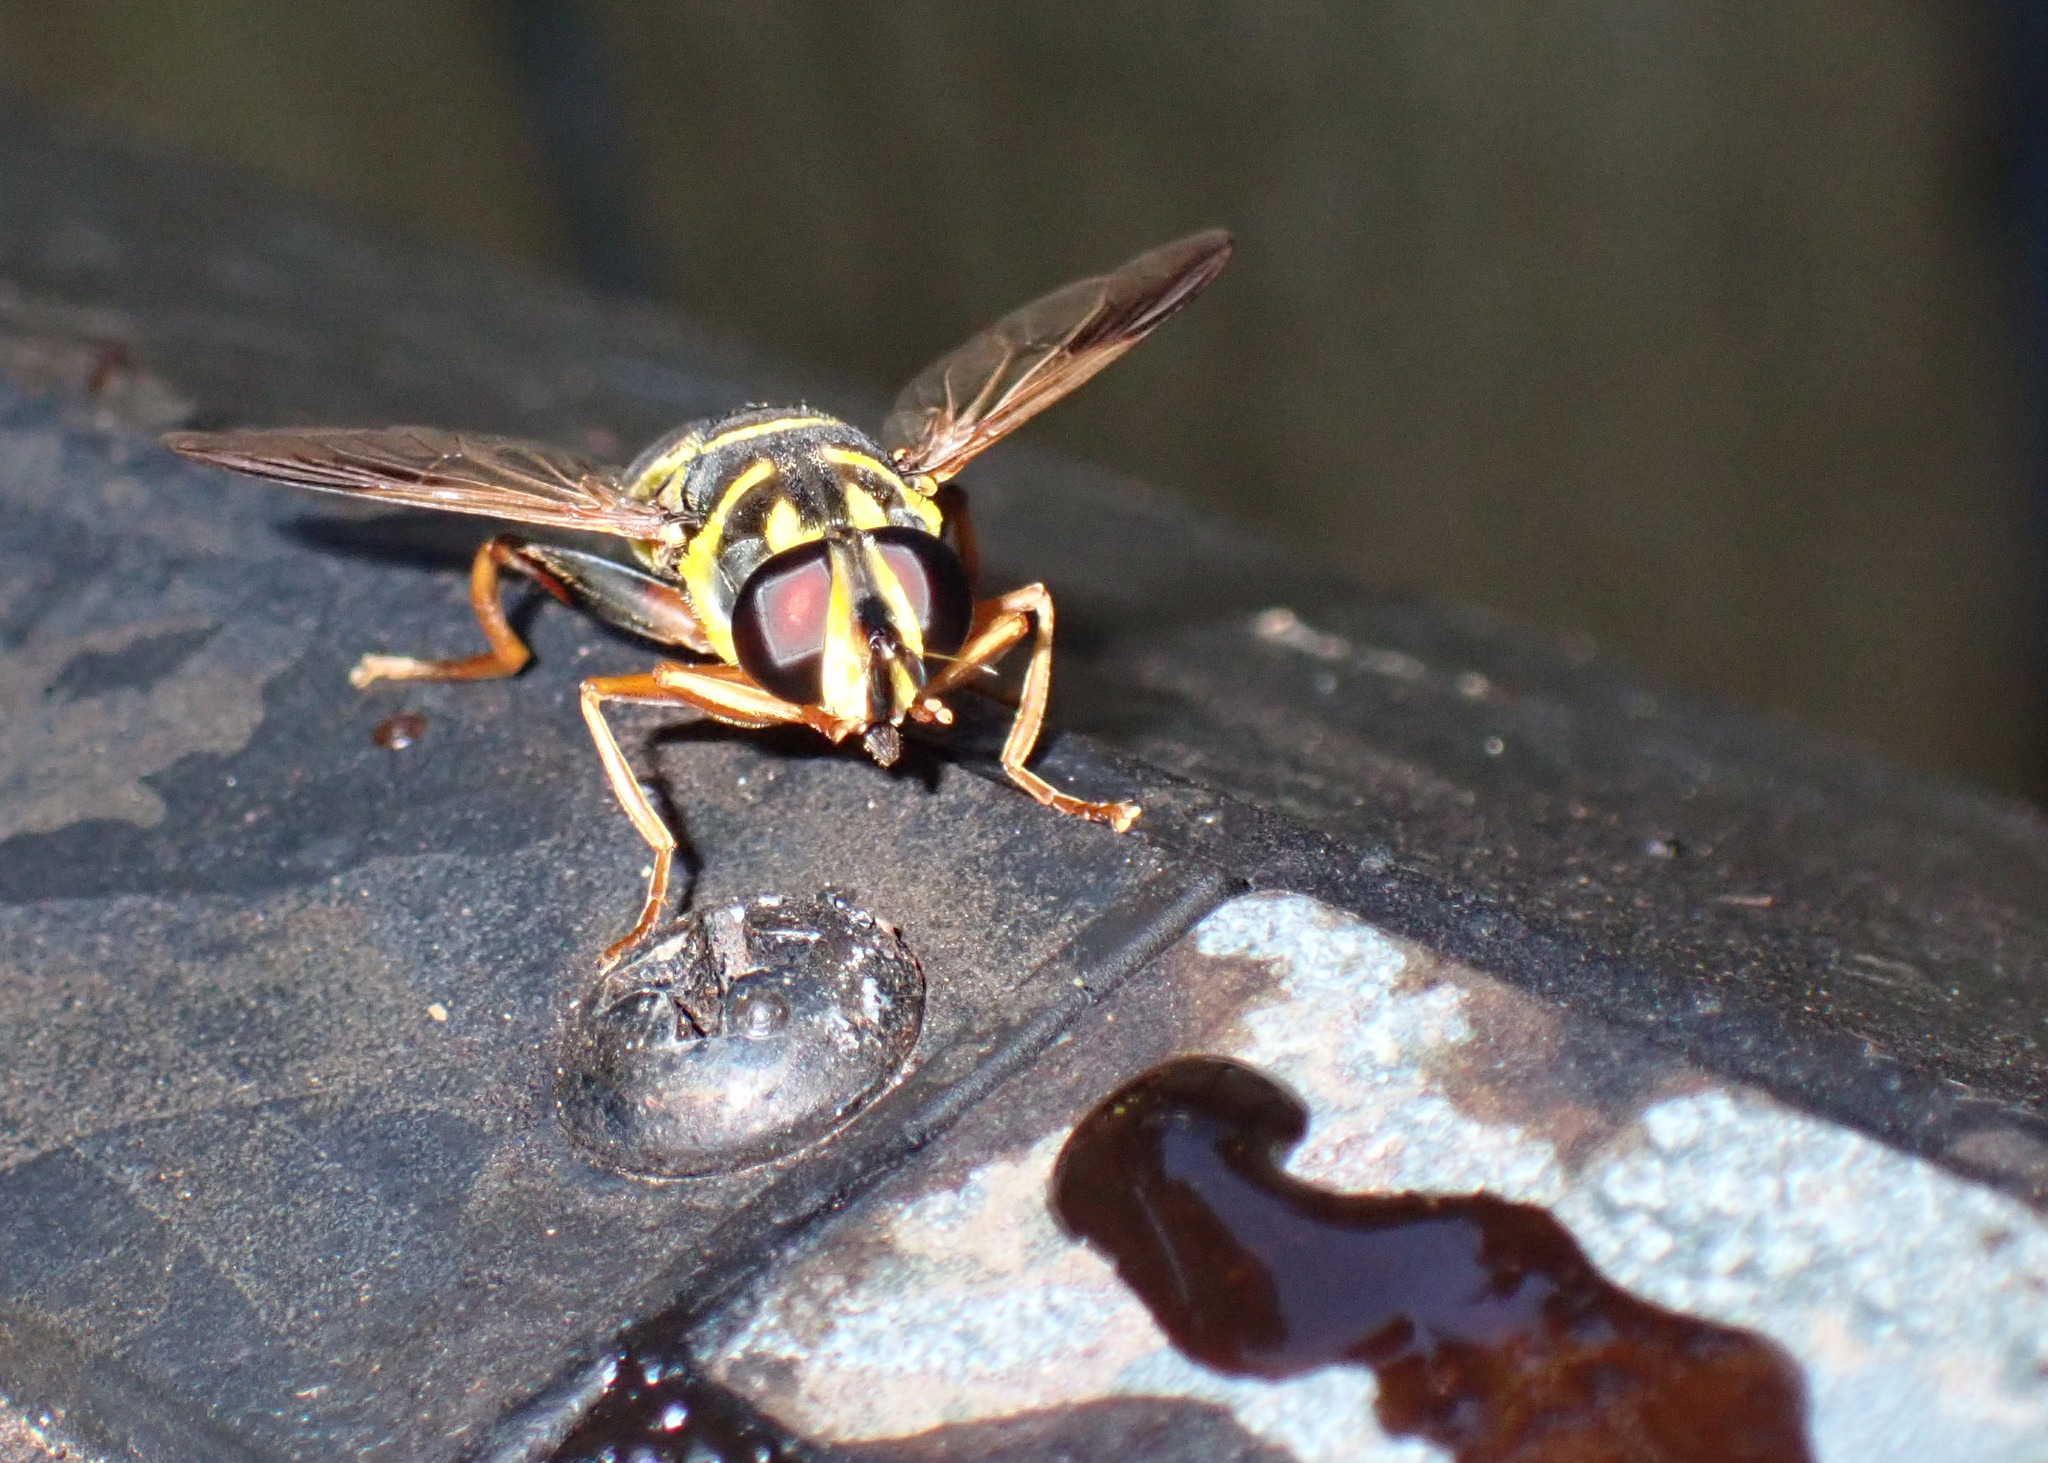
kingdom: Animalia
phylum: Arthropoda
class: Insecta
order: Diptera
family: Syrphidae
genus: Meromacrus
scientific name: Meromacrus acutus
